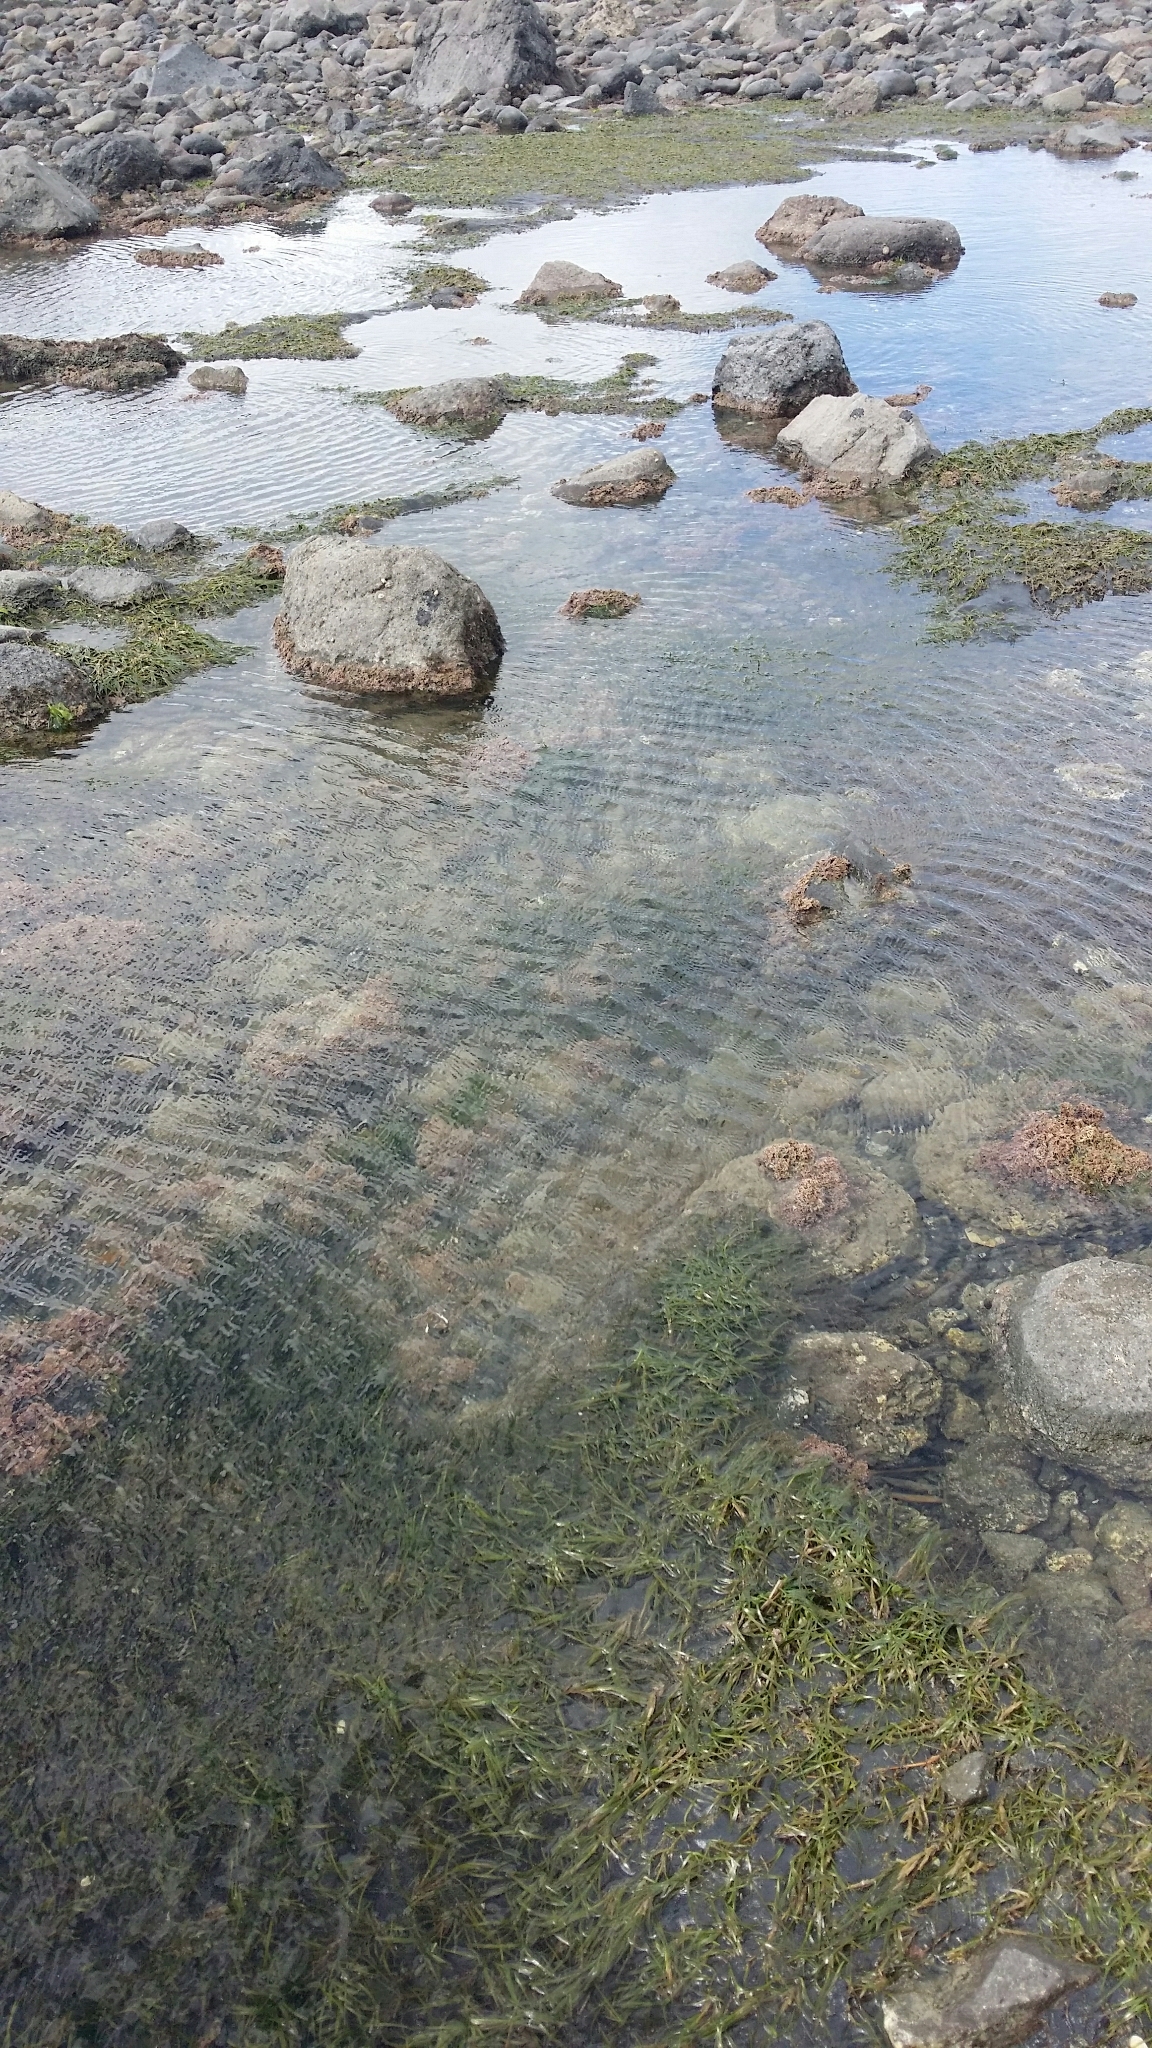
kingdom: Plantae
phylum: Tracheophyta
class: Liliopsida
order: Alismatales
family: Zosteraceae
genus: Zostera
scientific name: Zostera novazelandica
